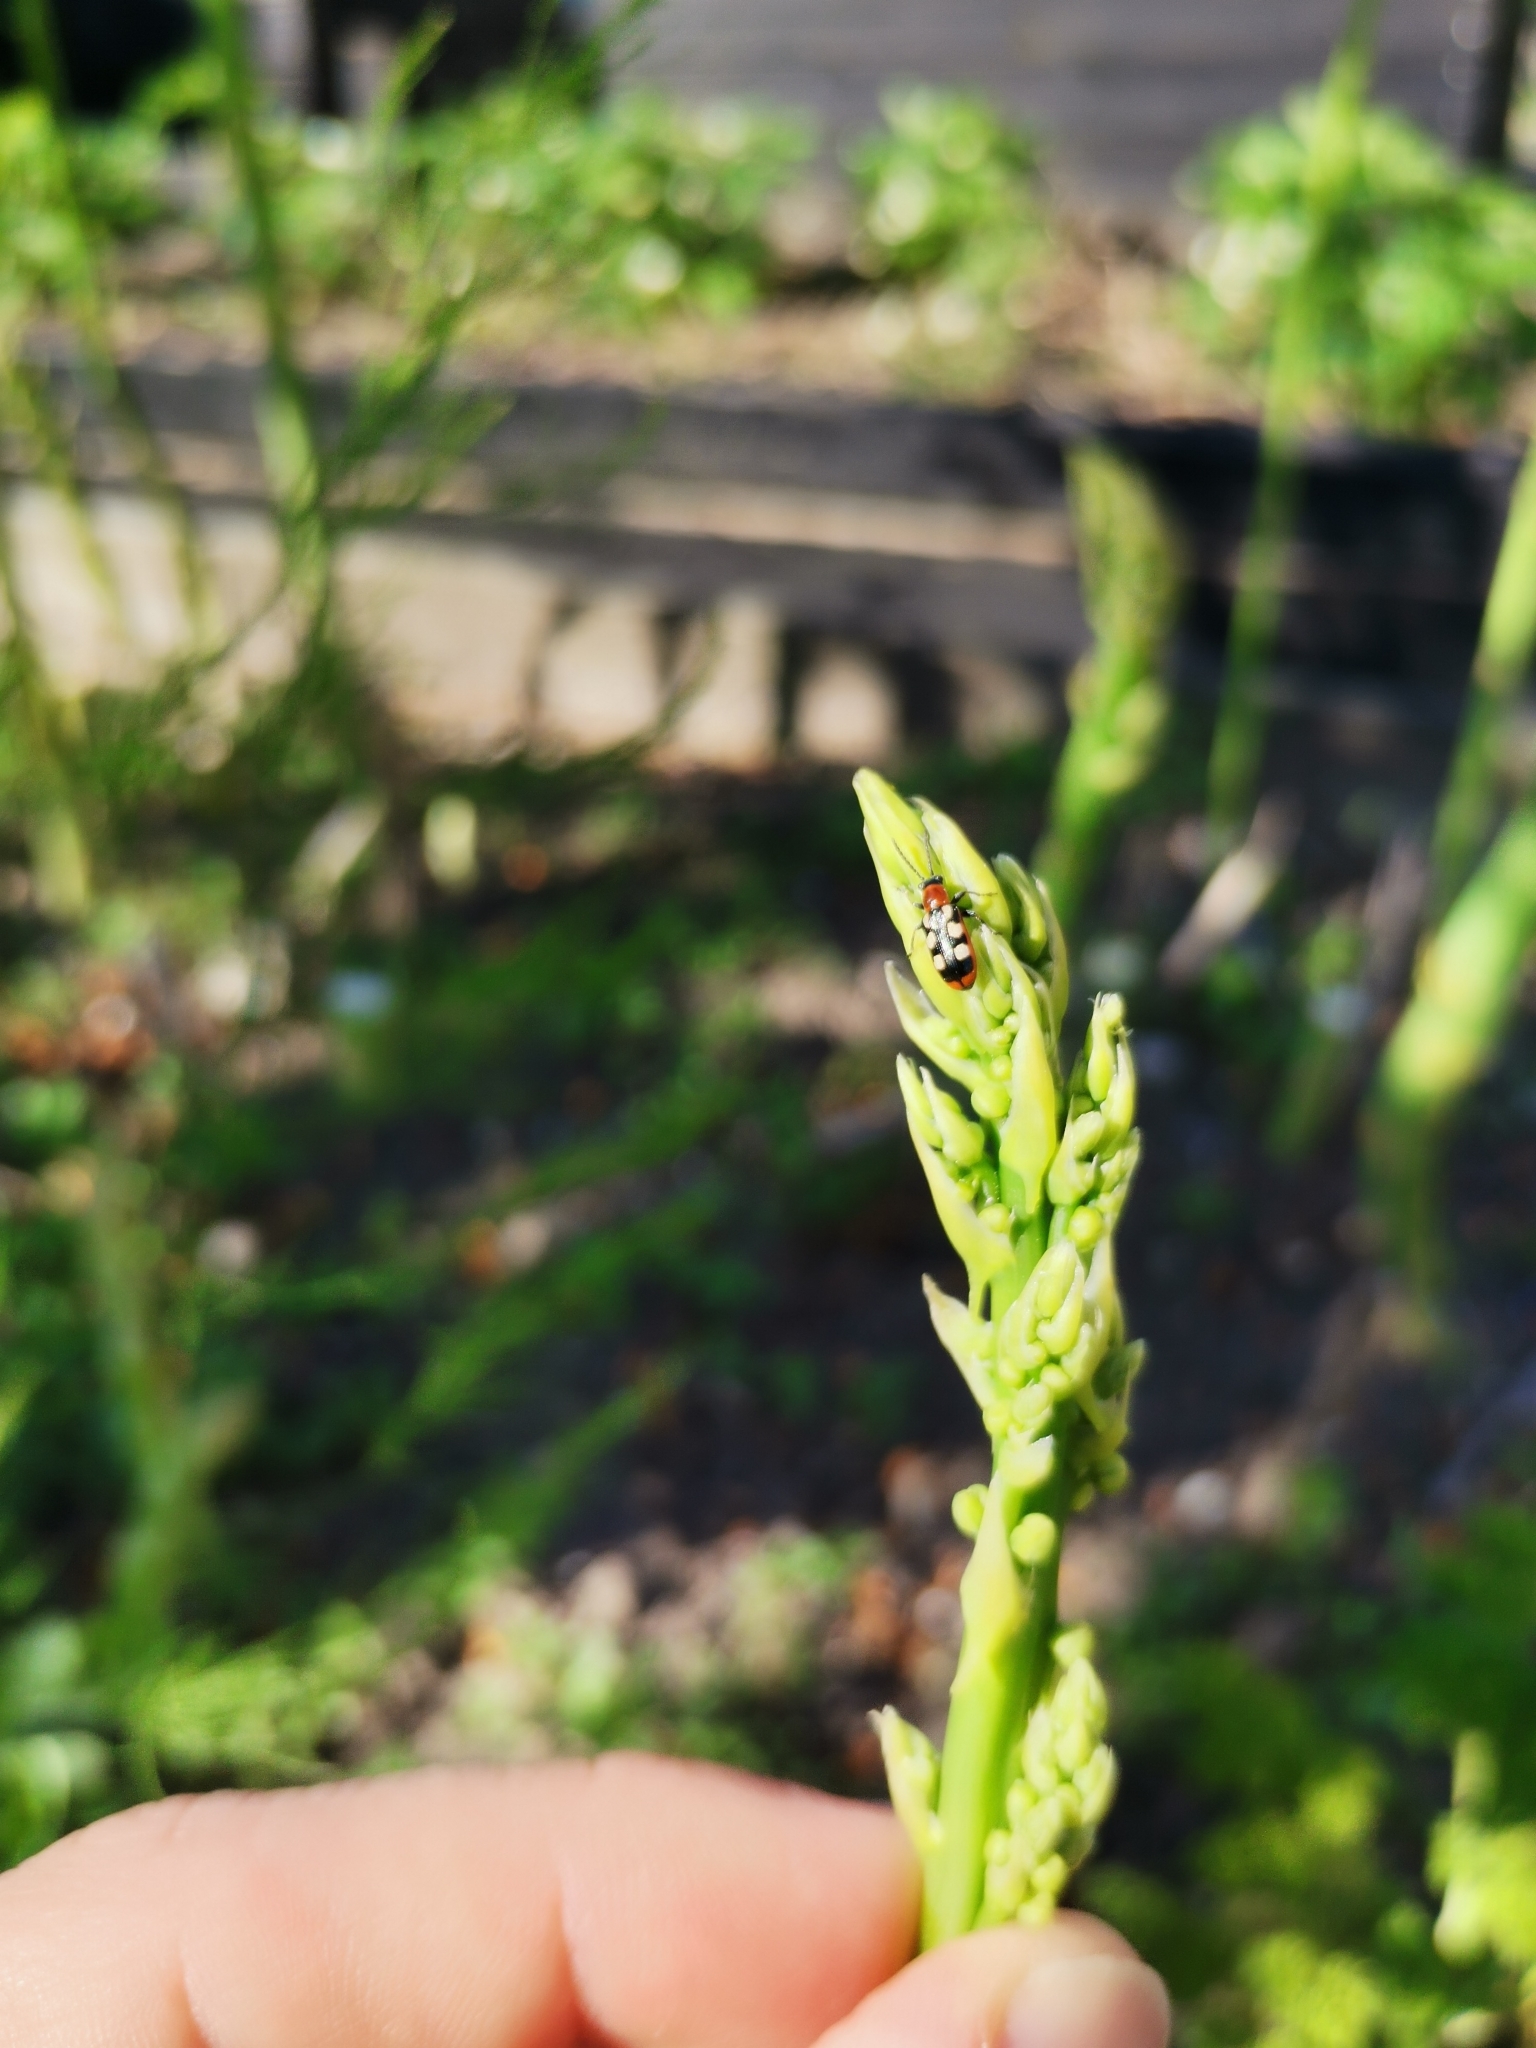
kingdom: Animalia
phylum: Arthropoda
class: Insecta
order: Coleoptera
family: Chrysomelidae
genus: Crioceris
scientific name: Crioceris asparagi
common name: Asparagus beetle
